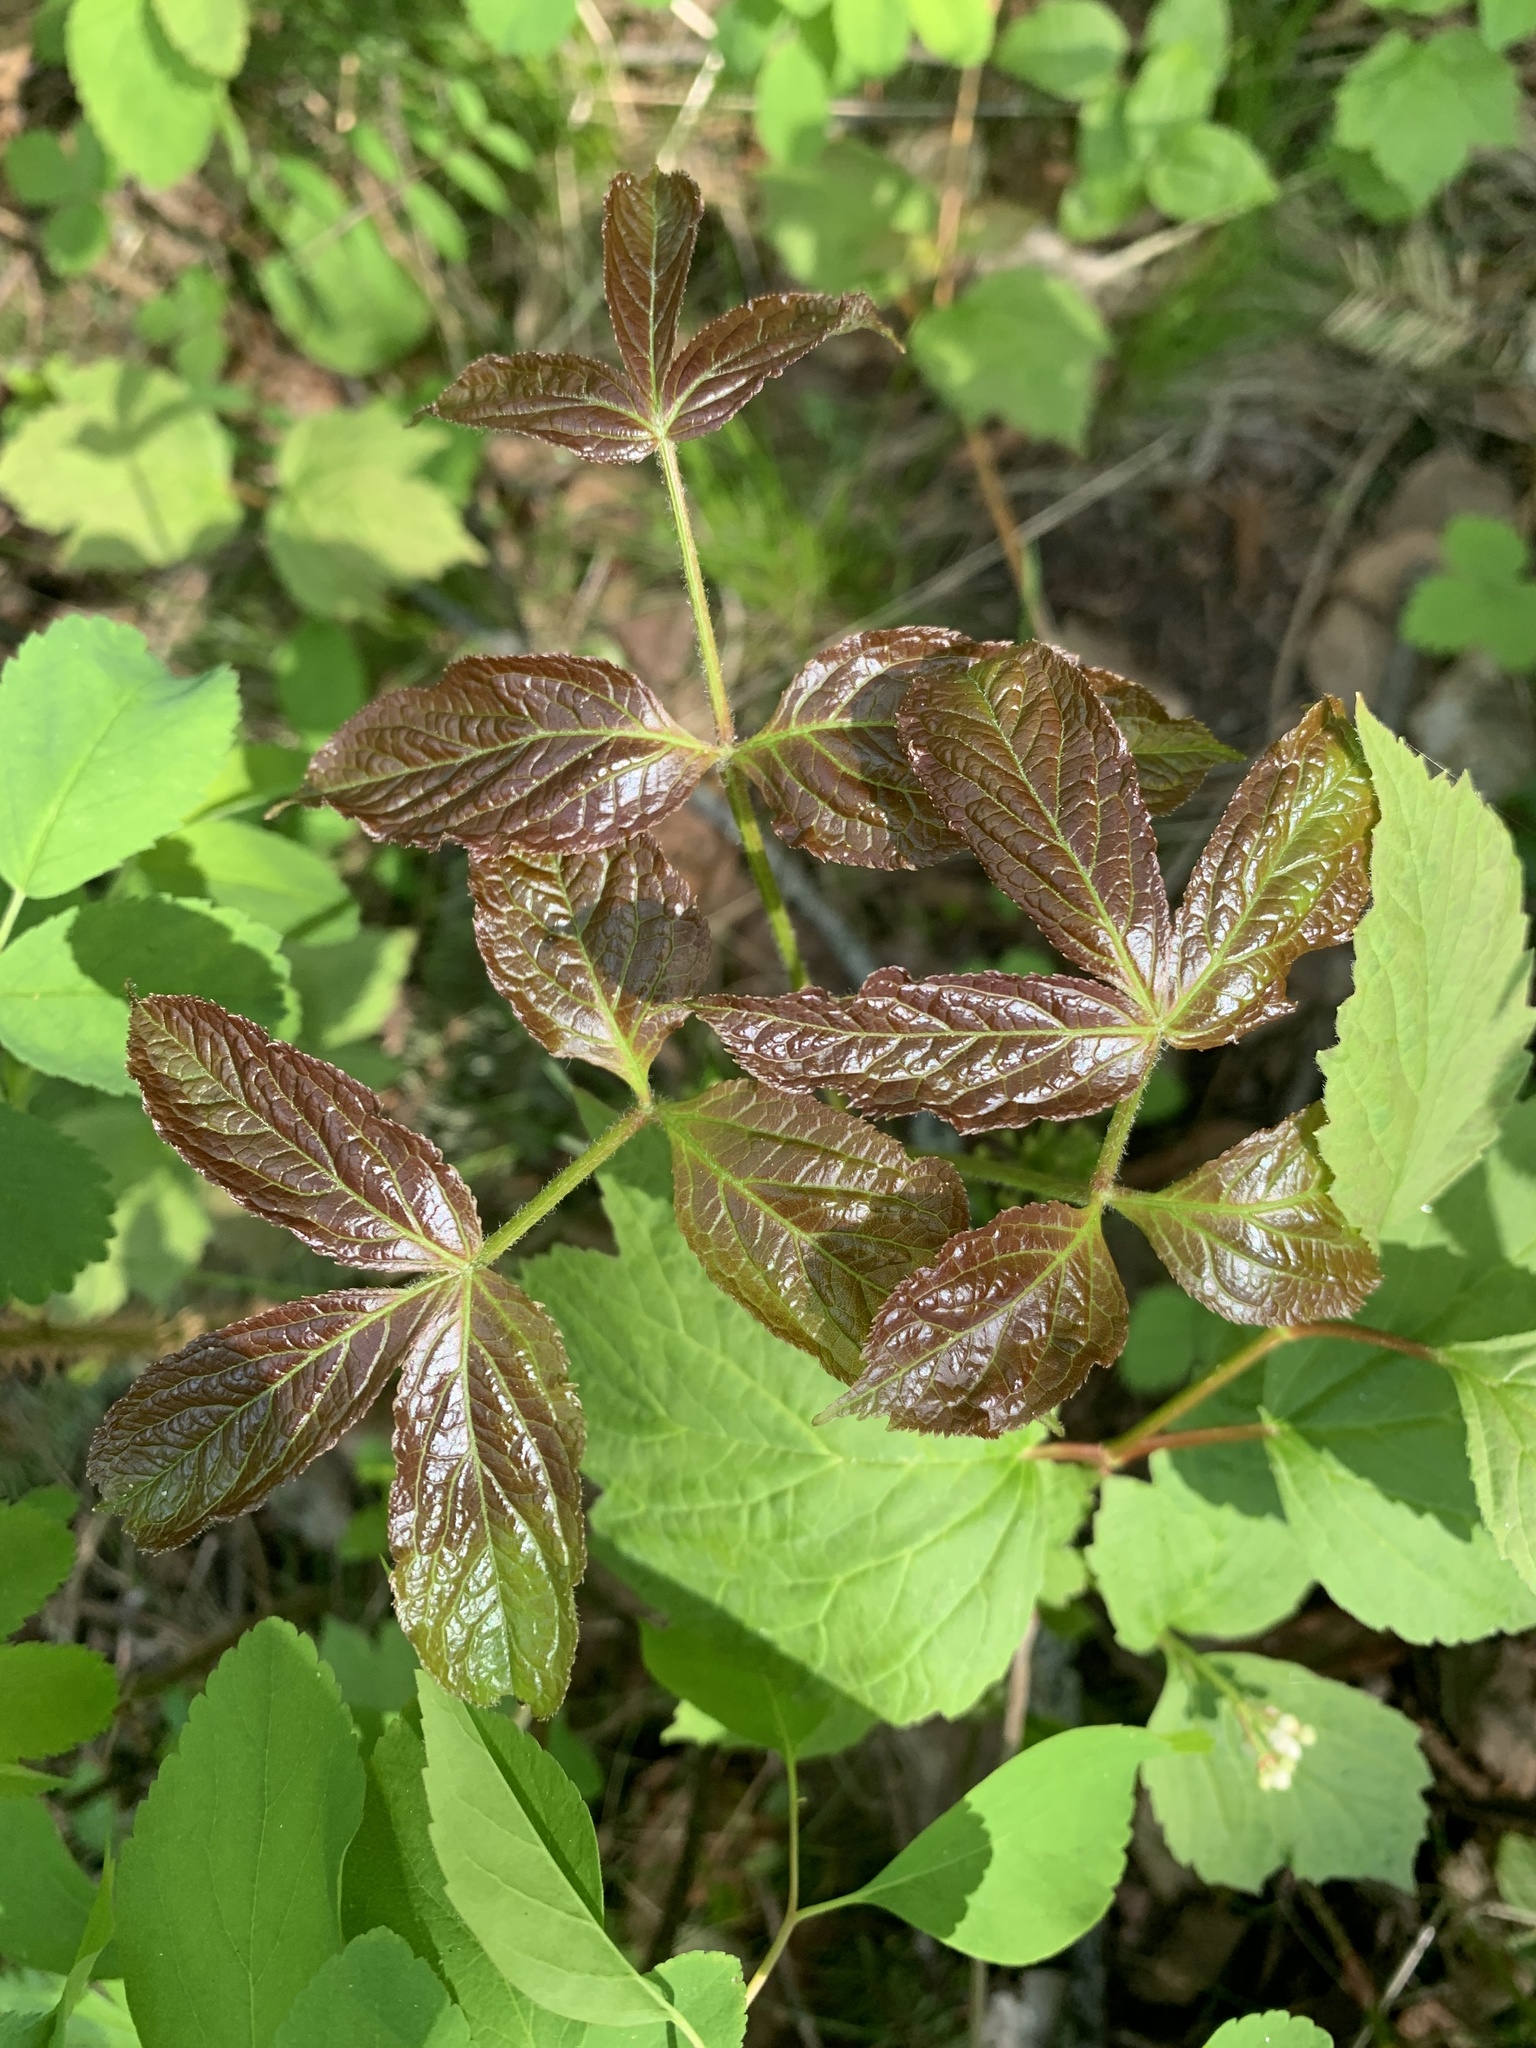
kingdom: Plantae
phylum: Tracheophyta
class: Magnoliopsida
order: Apiales
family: Araliaceae
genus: Aralia
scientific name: Aralia nudicaulis
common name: Wild sarsaparilla
